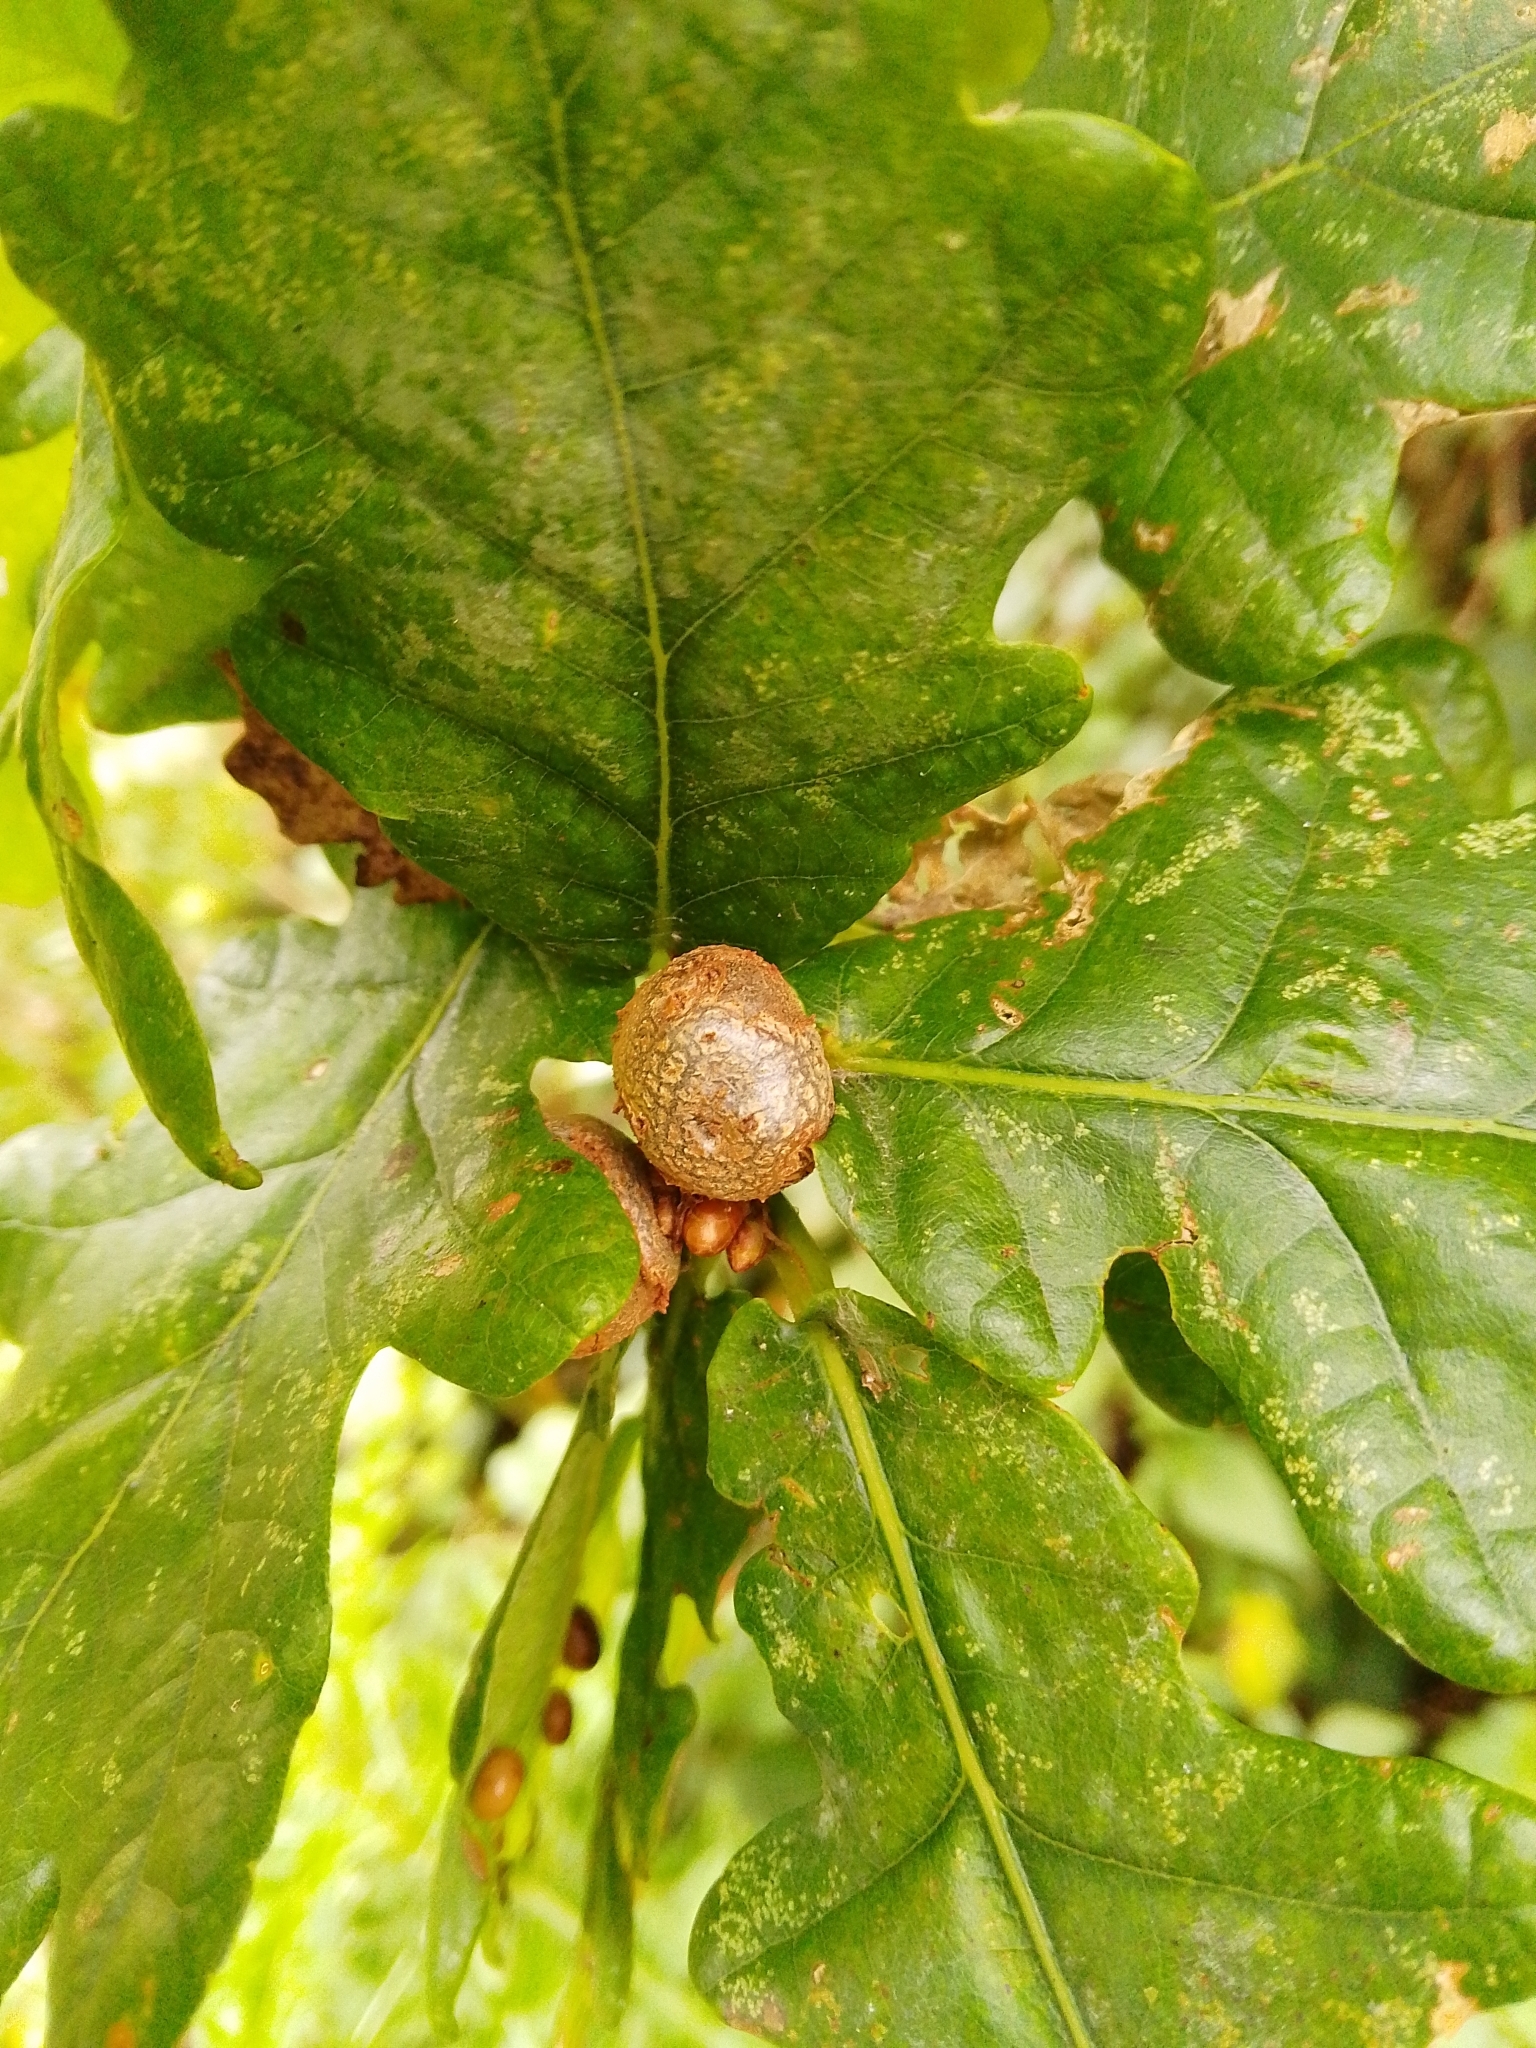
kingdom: Animalia
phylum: Arthropoda
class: Insecta
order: Hymenoptera
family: Cynipidae
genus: Andricus
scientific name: Andricus lignicolus
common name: Cola-nut gall
